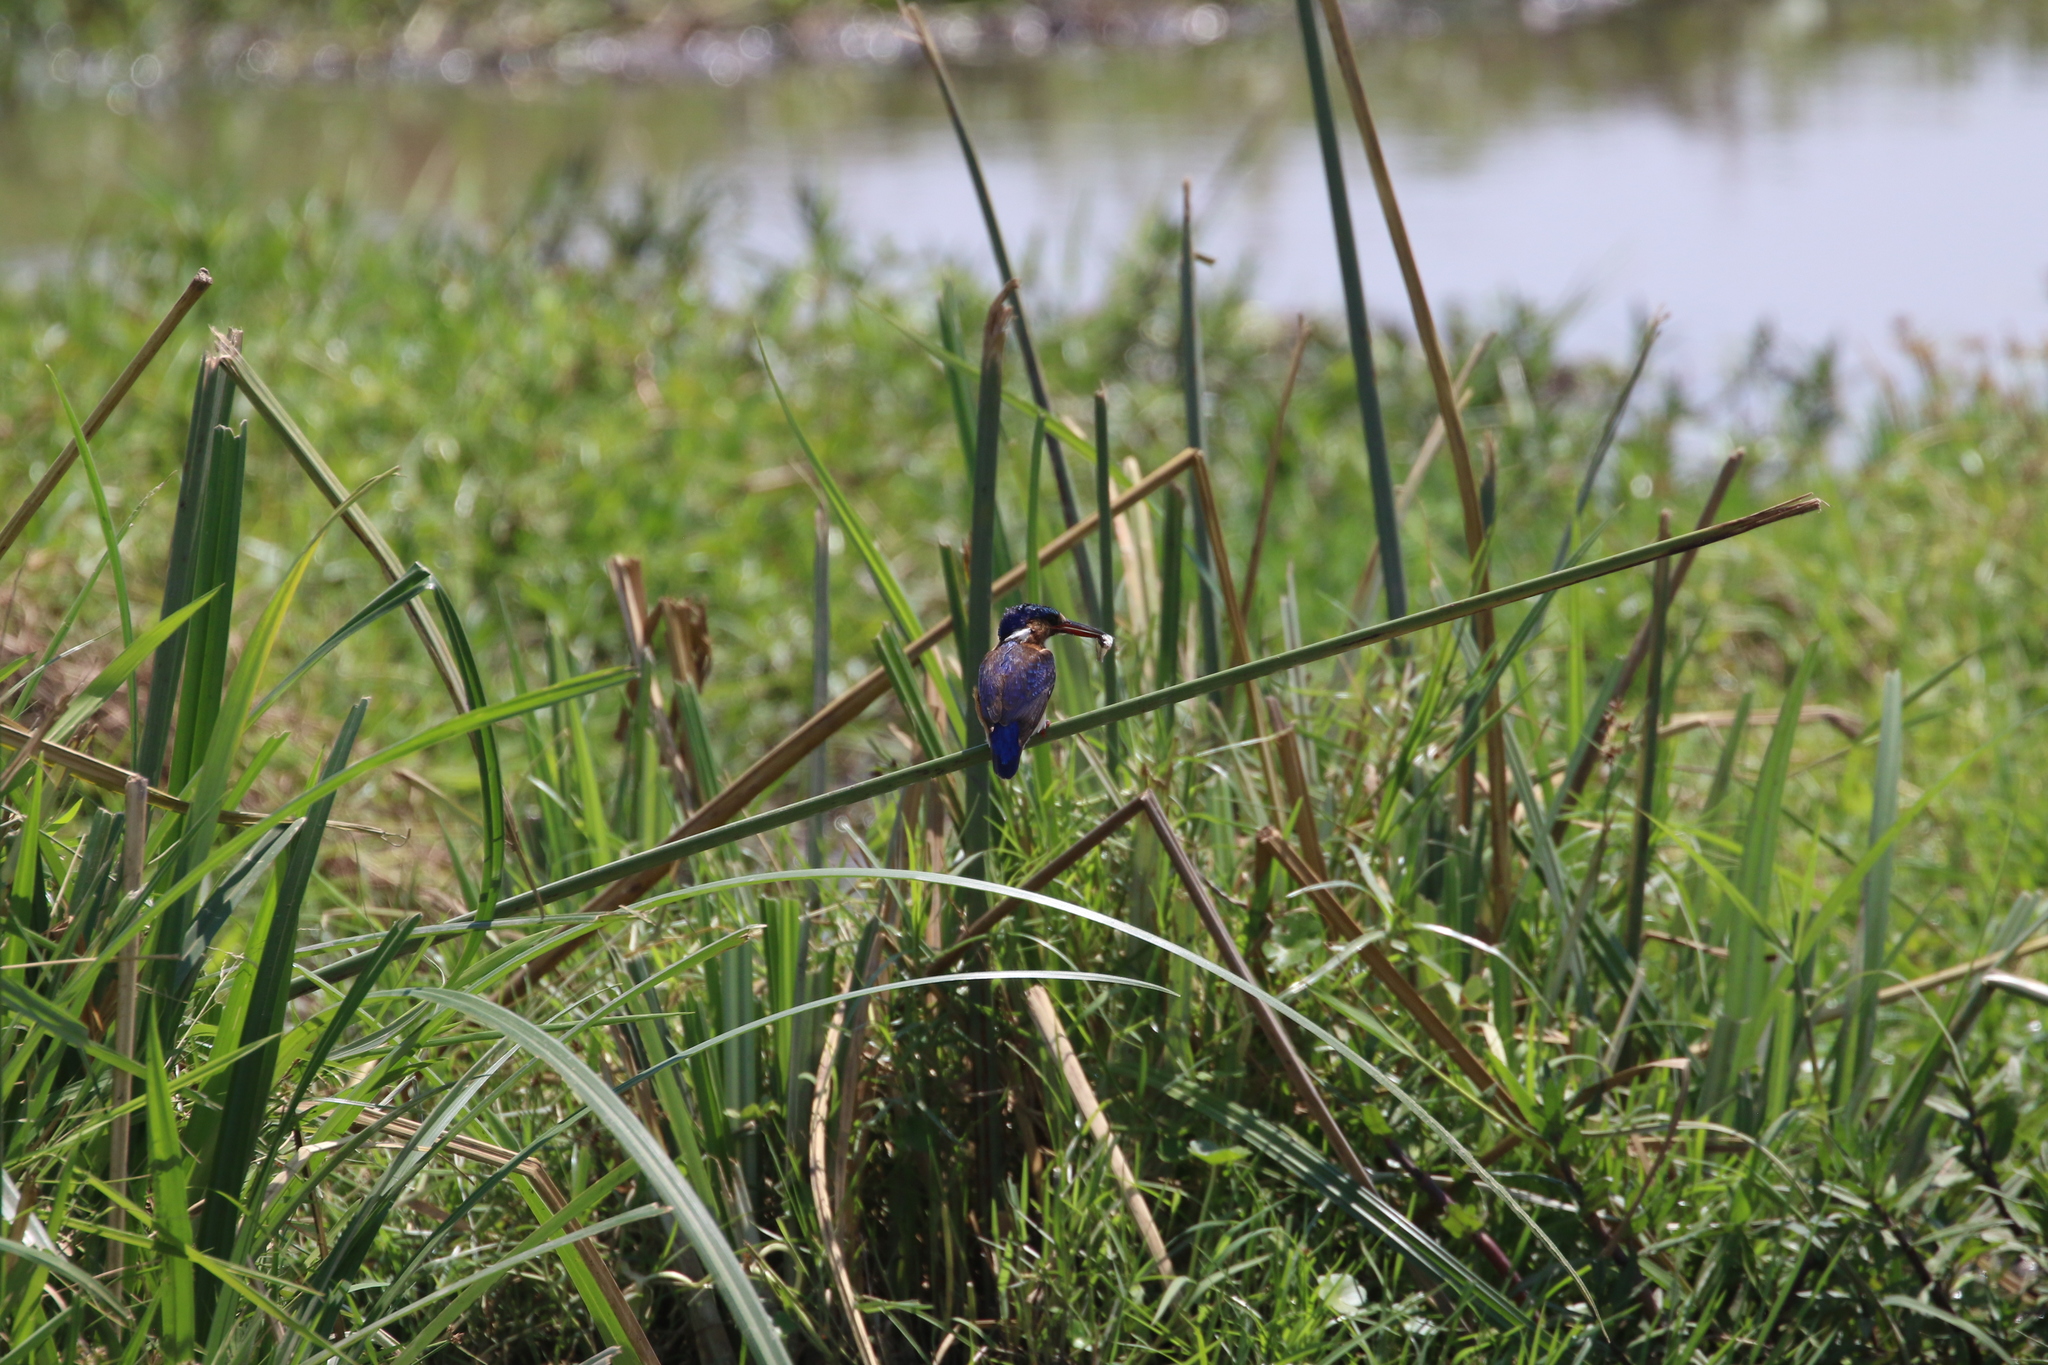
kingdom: Animalia
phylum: Chordata
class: Aves
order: Coraciiformes
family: Alcedinidae
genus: Corythornis
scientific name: Corythornis cristatus
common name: Malachite kingfisher
